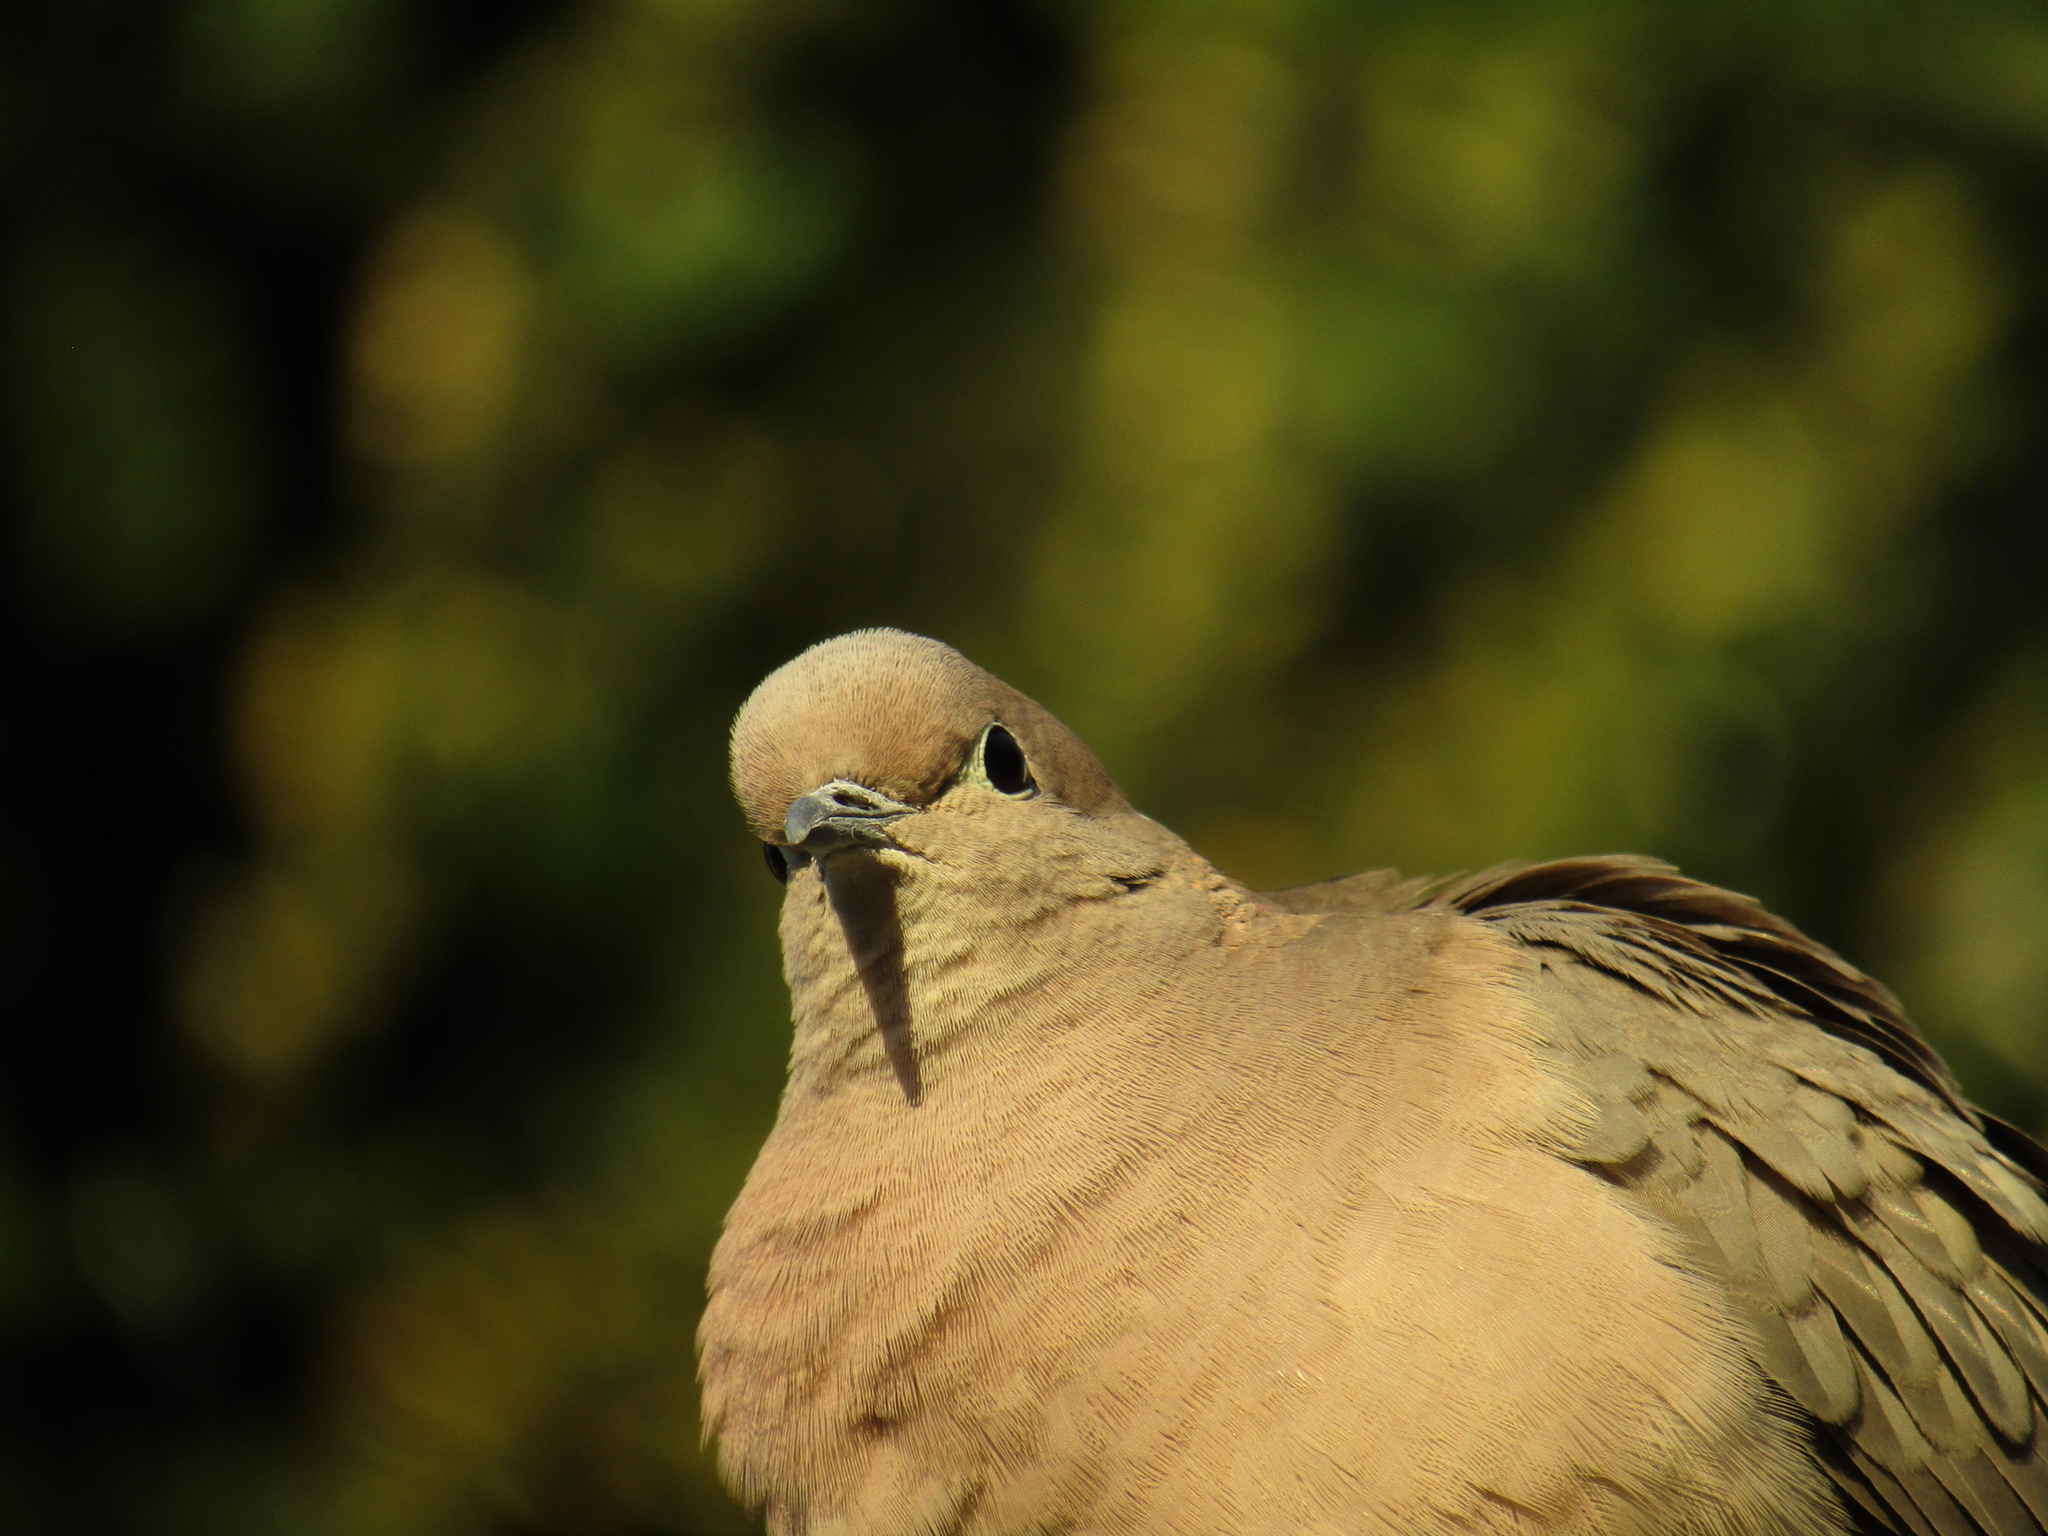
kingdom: Animalia
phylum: Chordata
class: Aves
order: Columbiformes
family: Columbidae
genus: Zenaida
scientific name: Zenaida auriculata
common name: Eared dove
